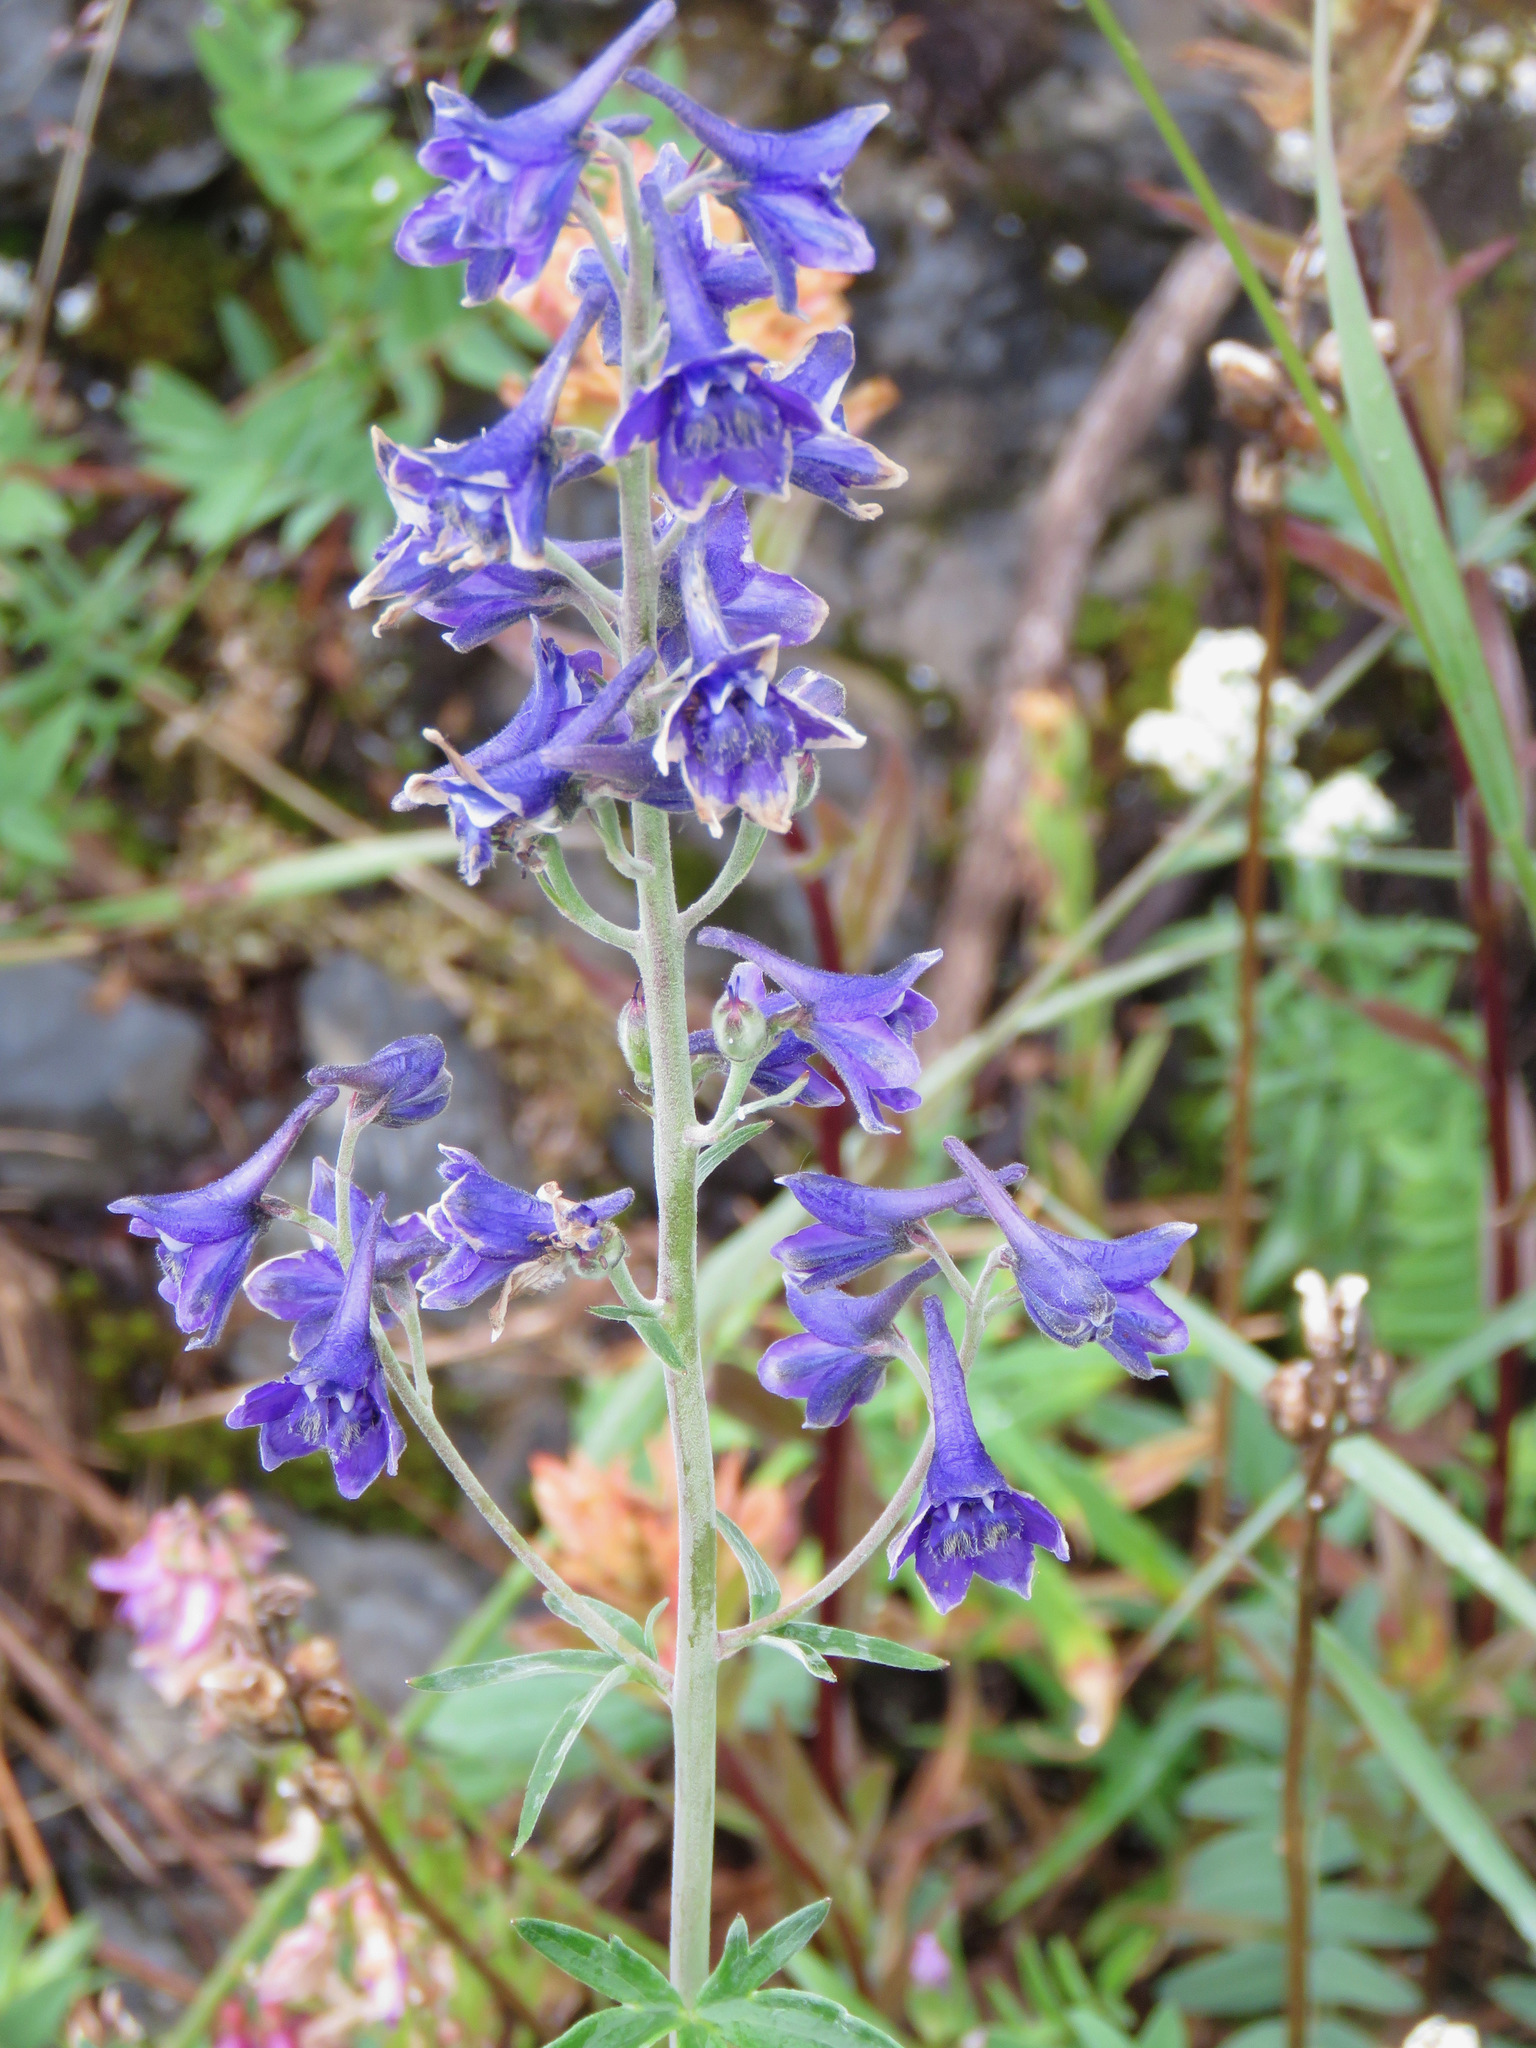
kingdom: Plantae
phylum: Tracheophyta
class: Magnoliopsida
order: Ranunculales
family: Ranunculaceae
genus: Delphinium
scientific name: Delphinium glaucum
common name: Brown's larkspur
